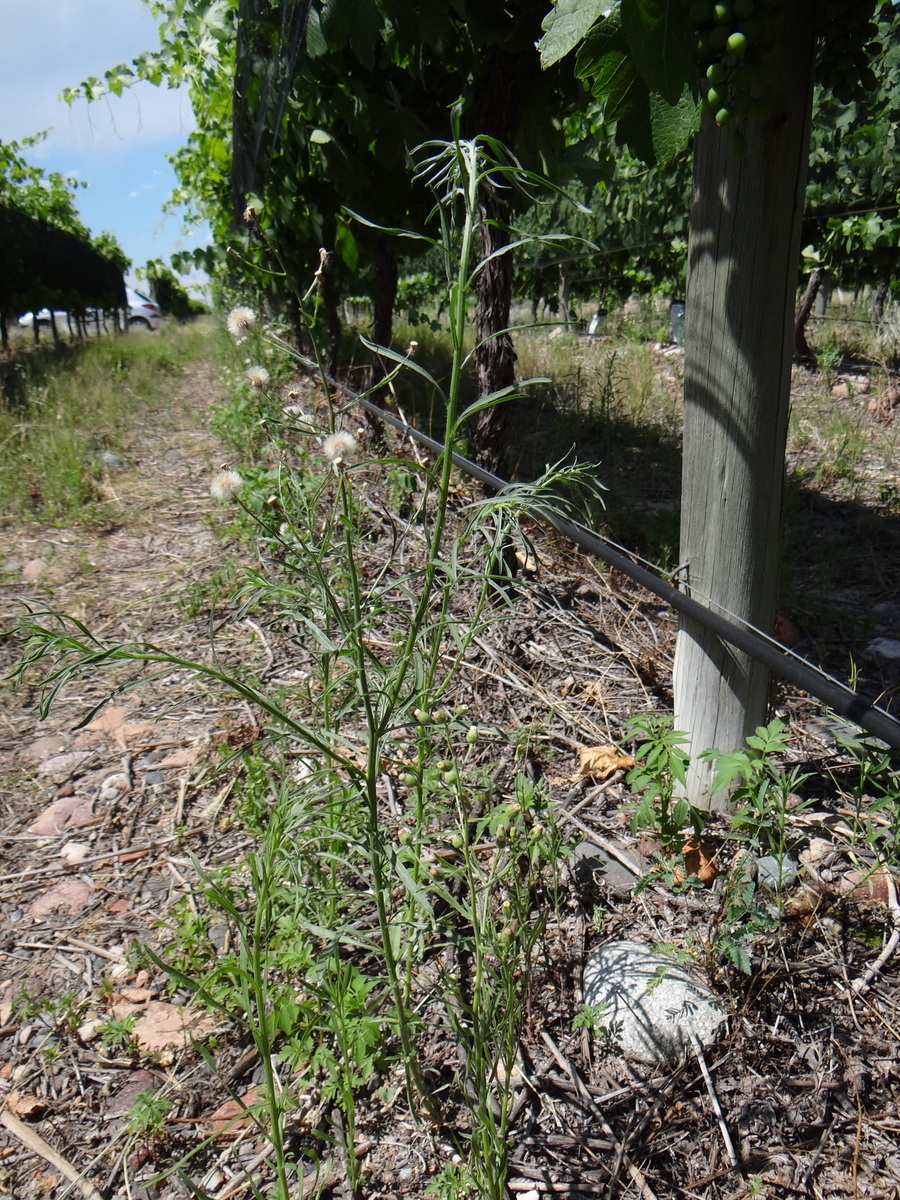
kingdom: Plantae
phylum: Tracheophyta
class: Magnoliopsida
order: Asterales
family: Asteraceae
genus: Erigeron
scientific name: Erigeron bonariensis
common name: Argentine fleabane
